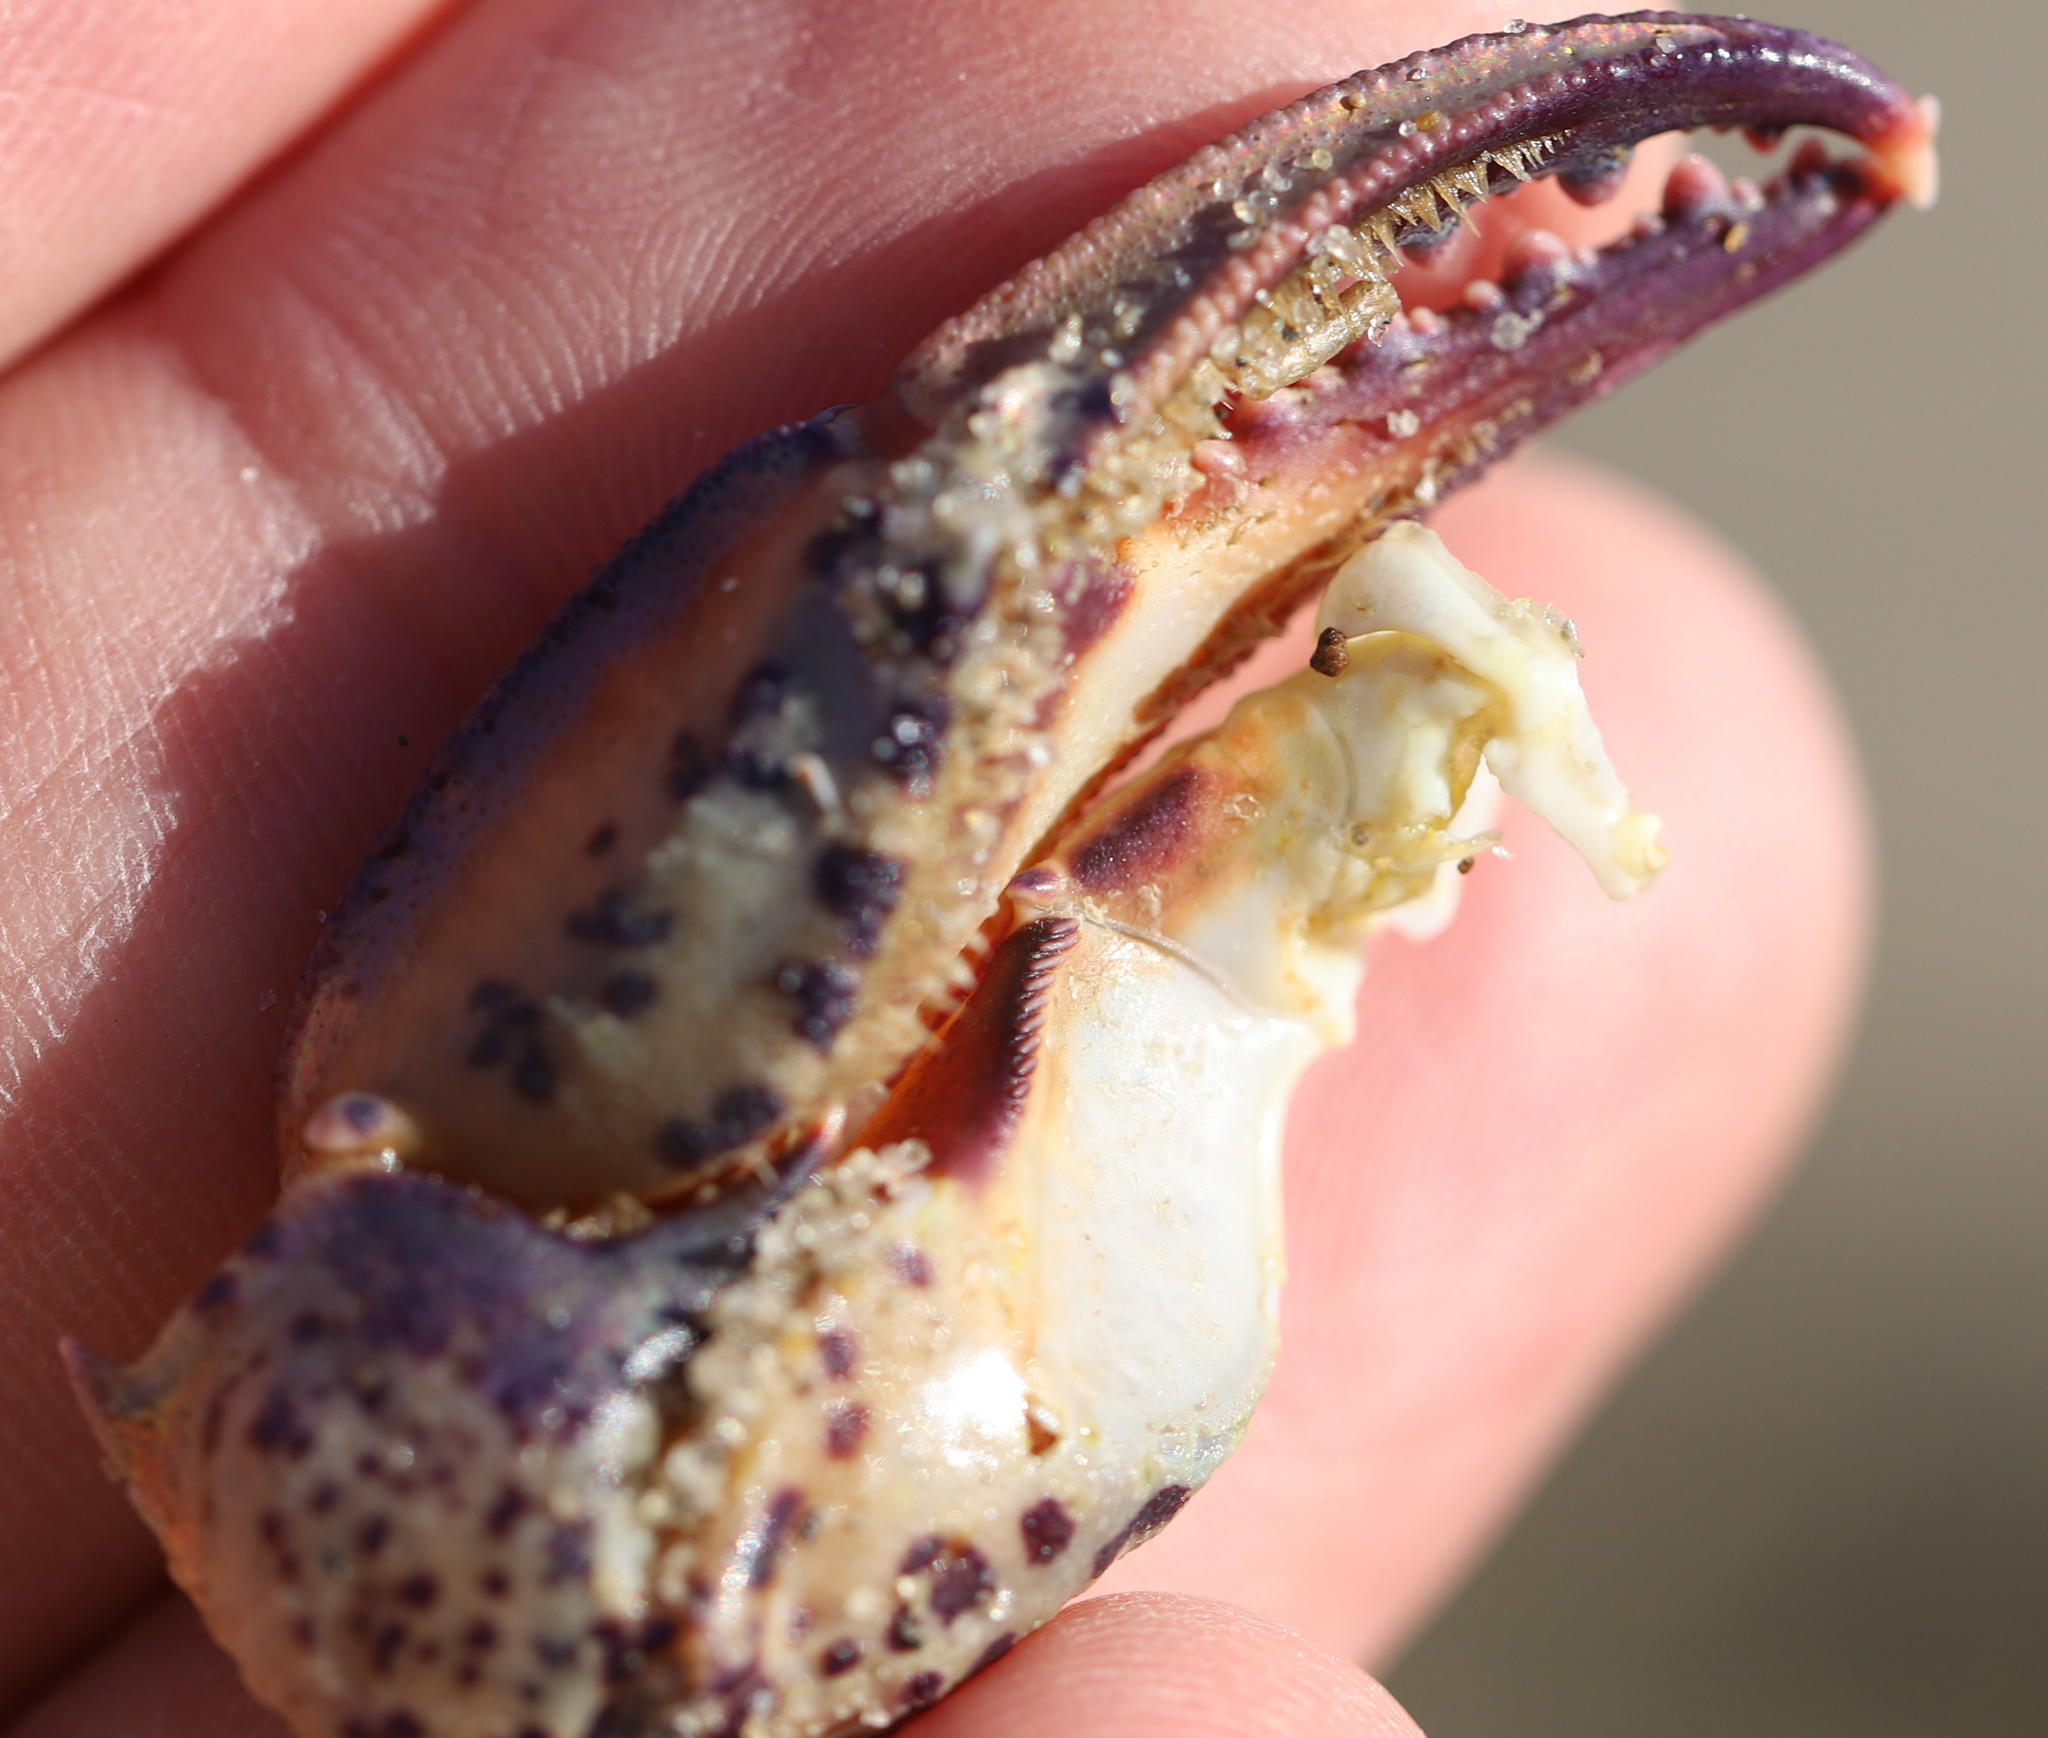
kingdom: Animalia
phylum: Arthropoda
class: Malacostraca
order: Decapoda
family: Ovalipidae
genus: Ovalipes
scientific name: Ovalipes ocellatus
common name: Lady crab
